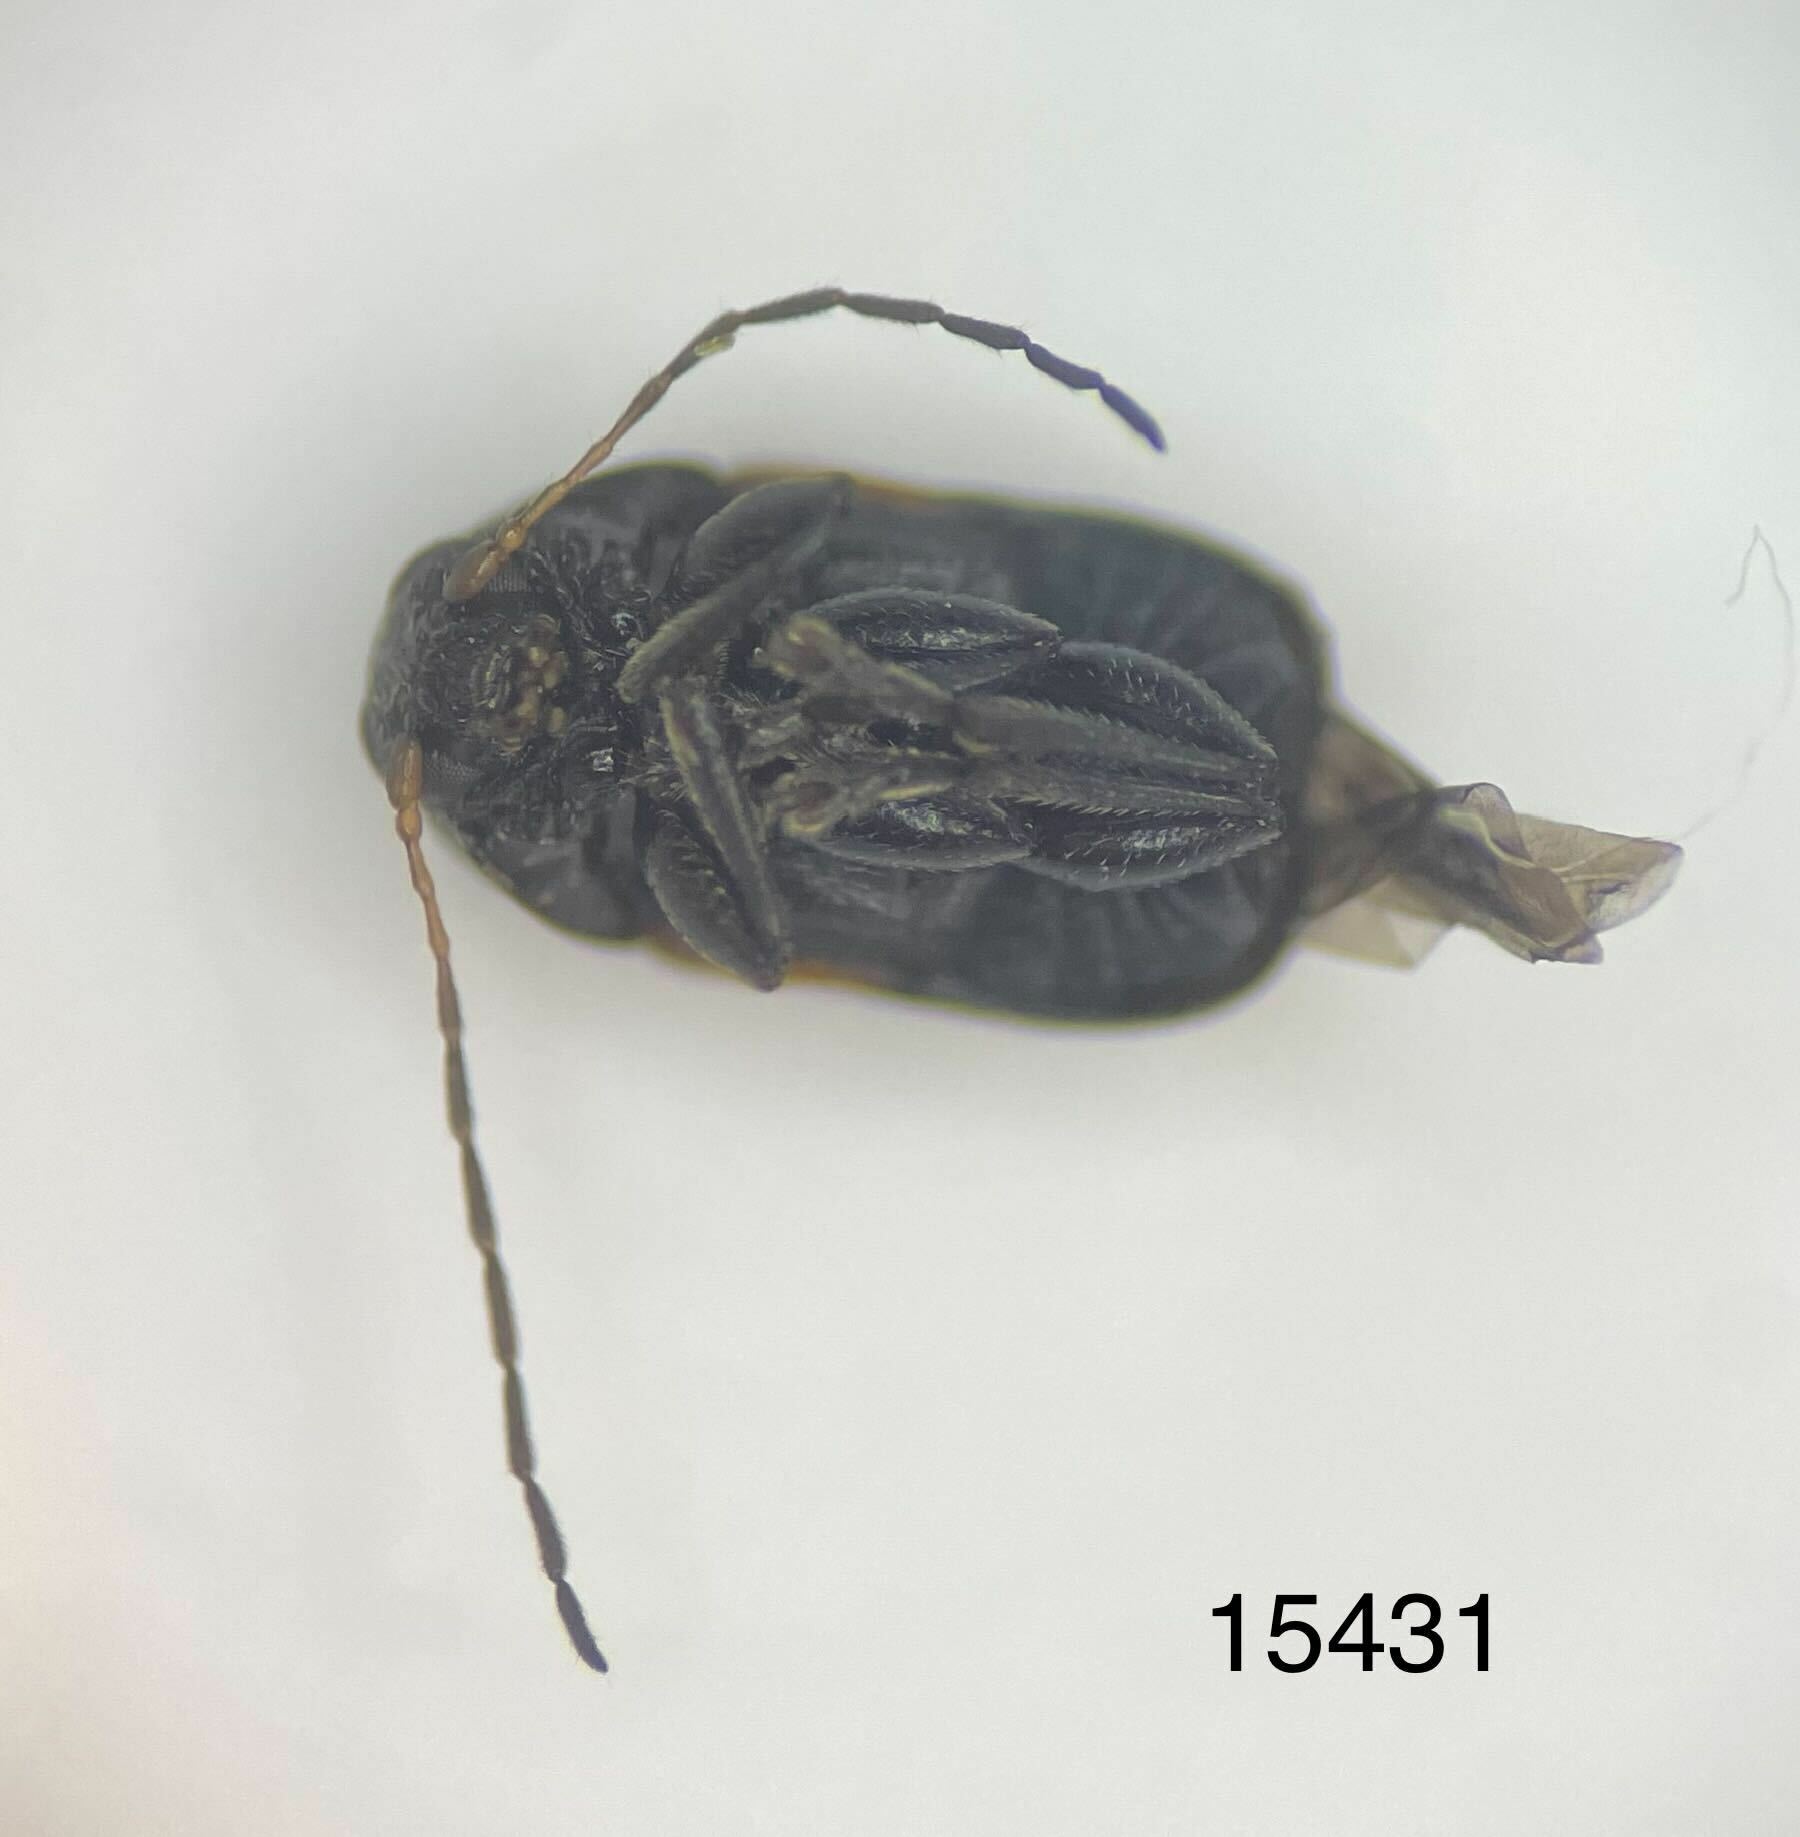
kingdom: Animalia
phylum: Arthropoda
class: Insecta
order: Coleoptera
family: Chrysomelidae
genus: Cryptocephalus
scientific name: Cryptocephalus quadruplex
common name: Black and red sumac leaf beetle
